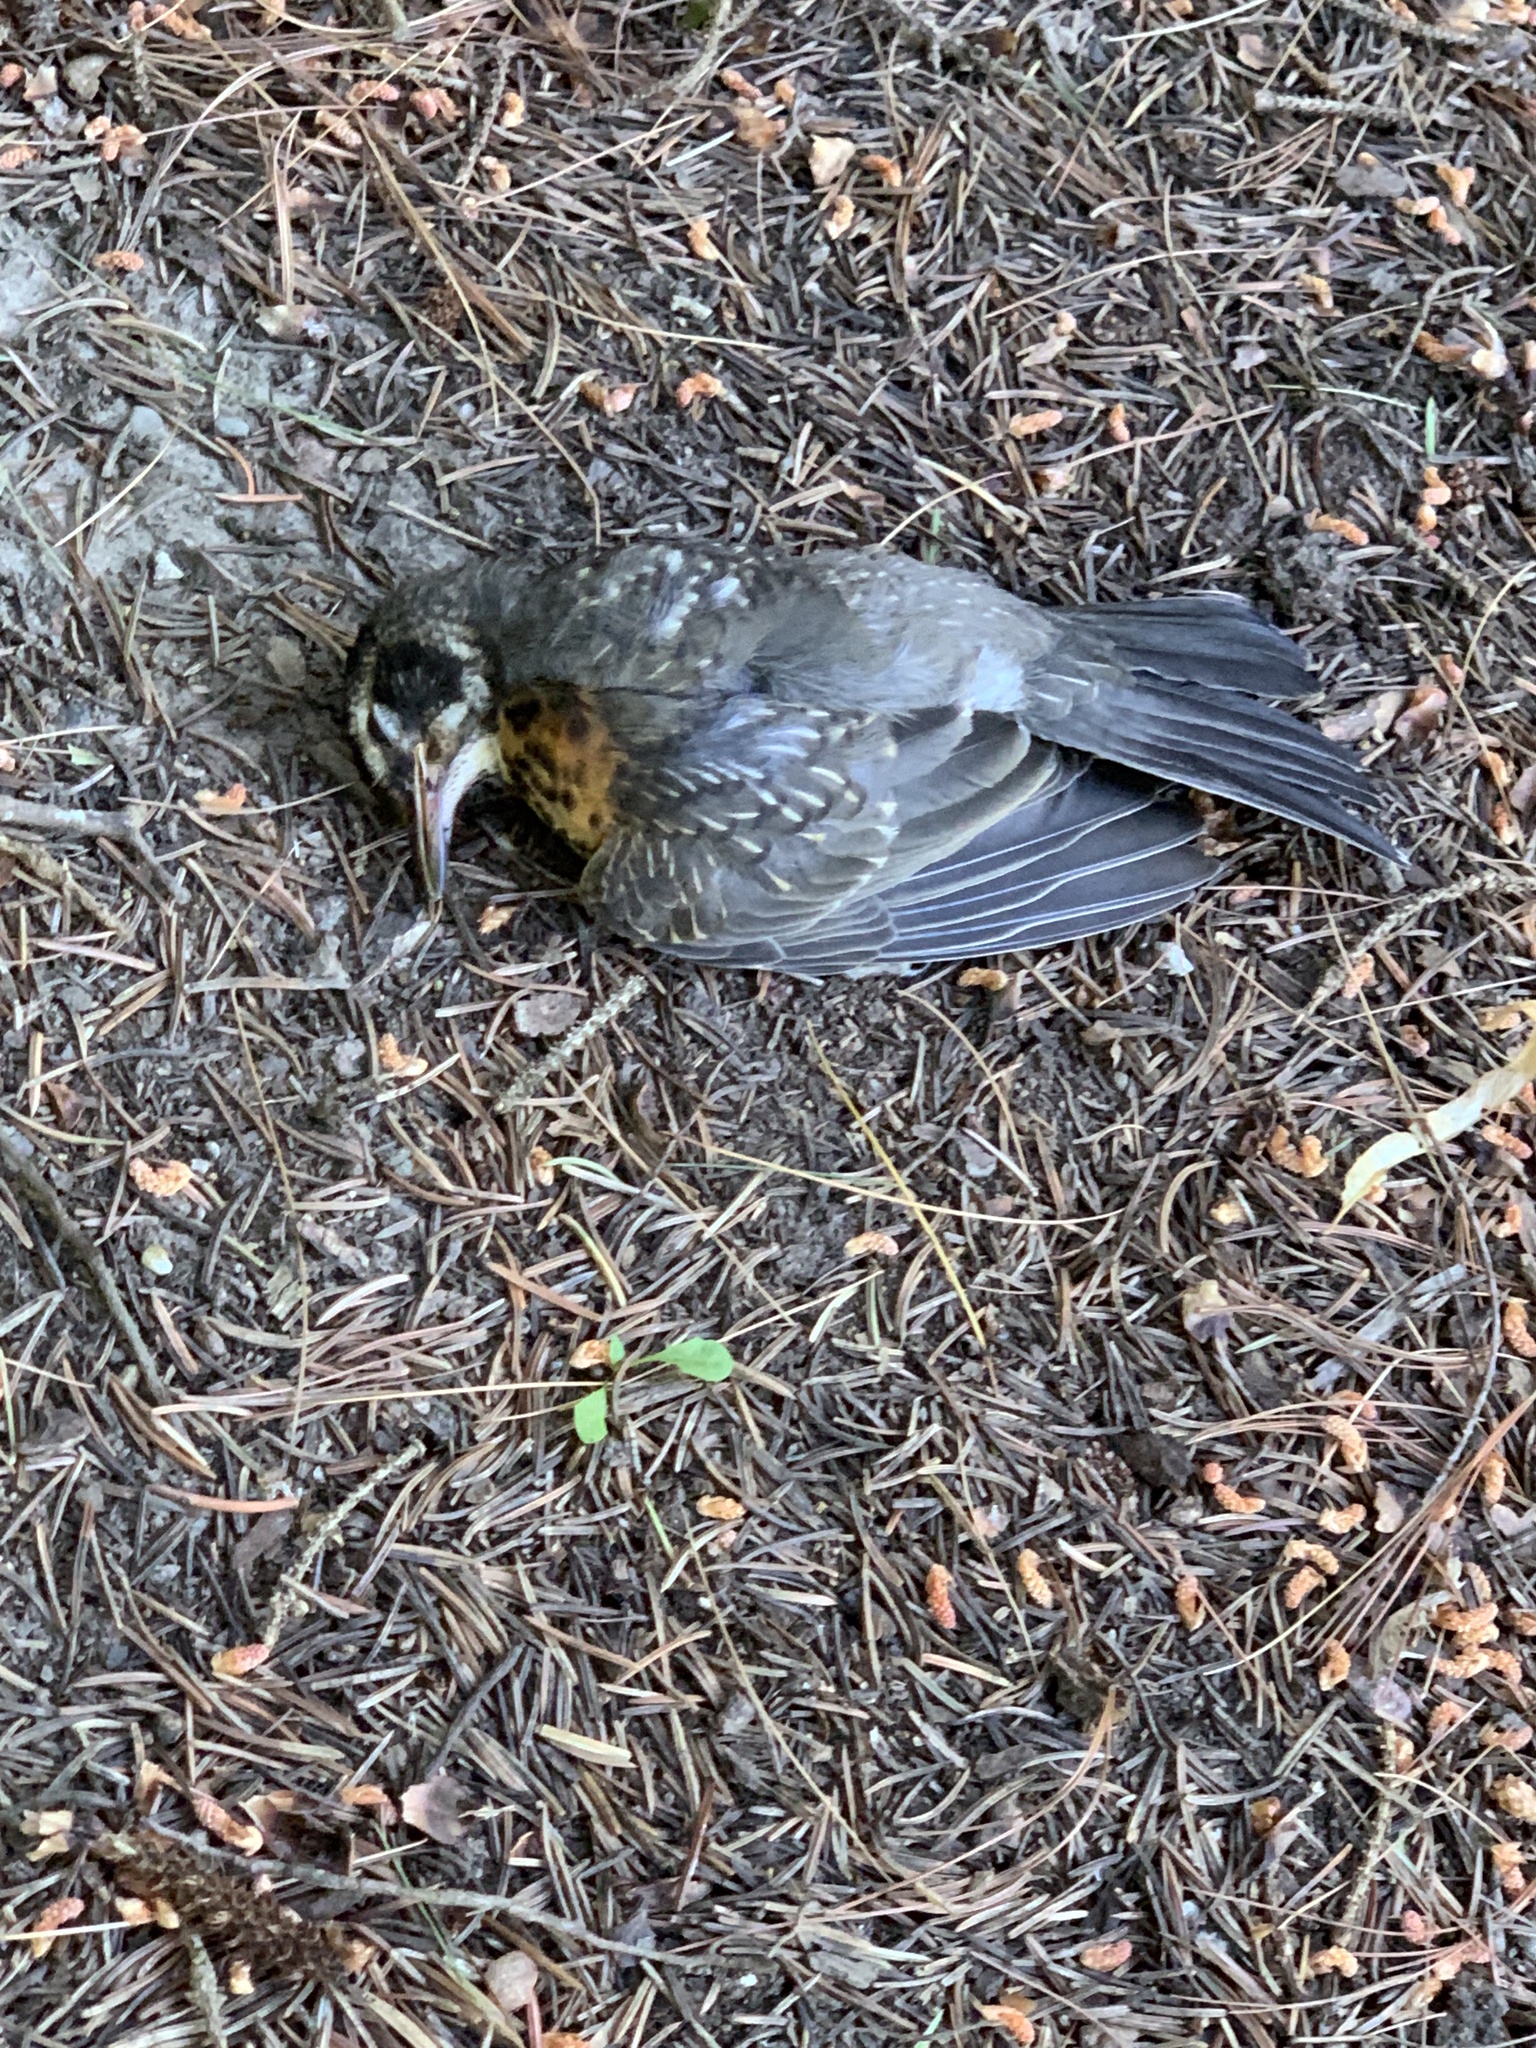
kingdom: Animalia
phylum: Chordata
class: Aves
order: Passeriformes
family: Turdidae
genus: Turdus
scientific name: Turdus migratorius
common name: American robin
